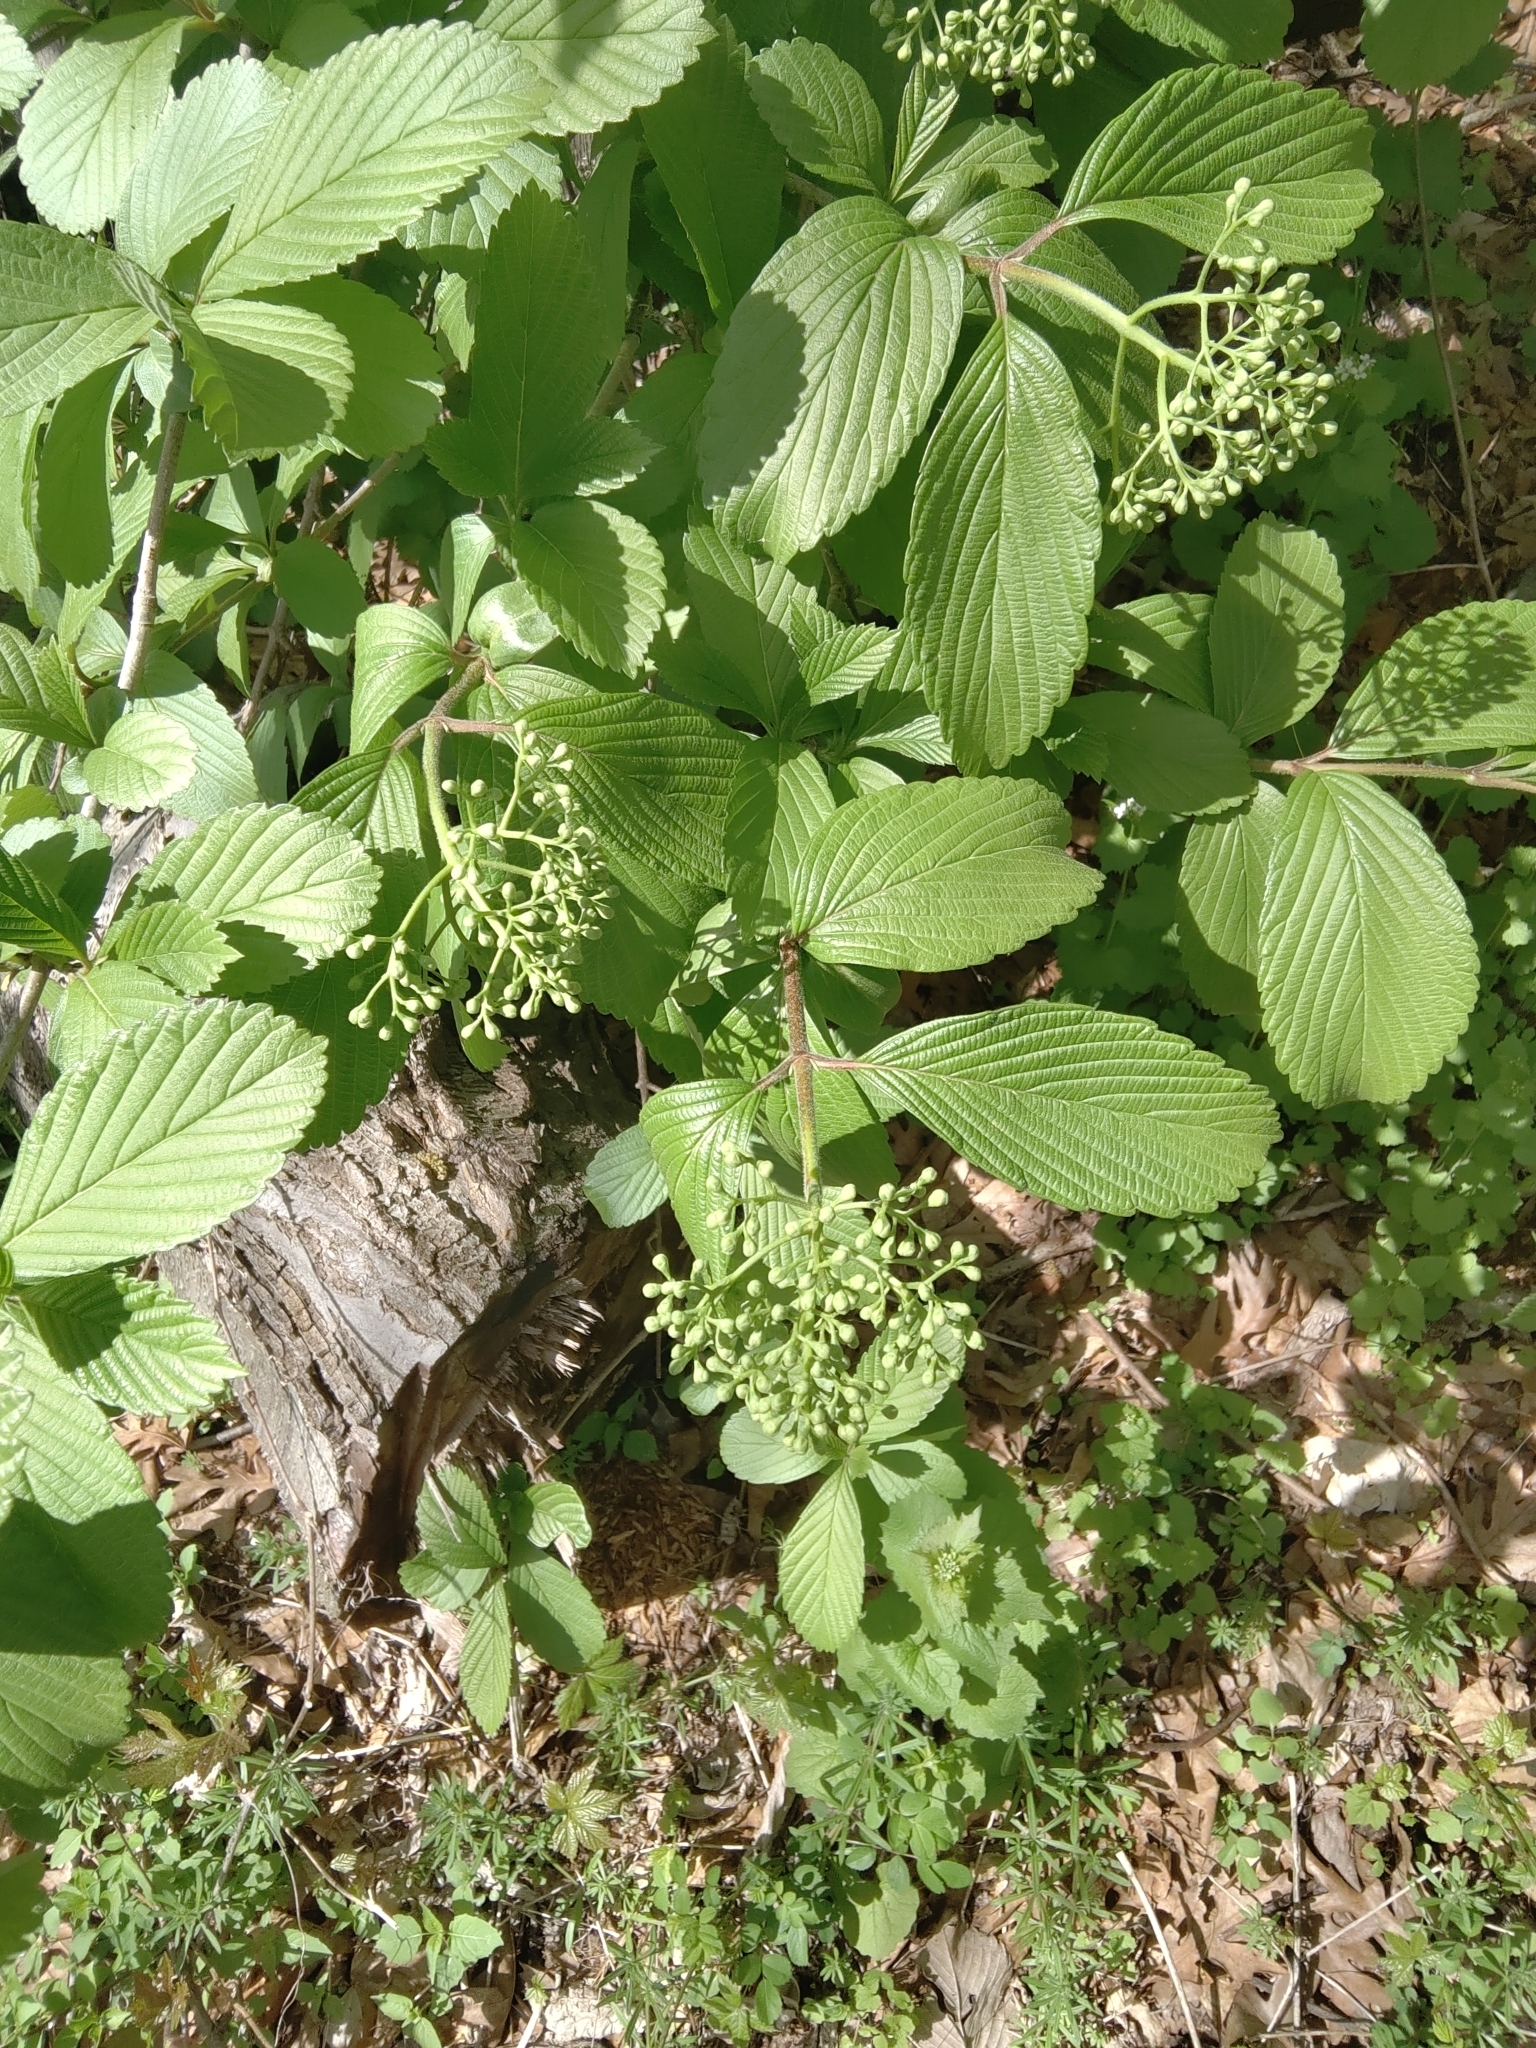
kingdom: Plantae
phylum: Tracheophyta
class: Magnoliopsida
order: Dipsacales
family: Viburnaceae
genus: Viburnum
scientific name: Viburnum sieboldii
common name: Siebold's arrowwood
